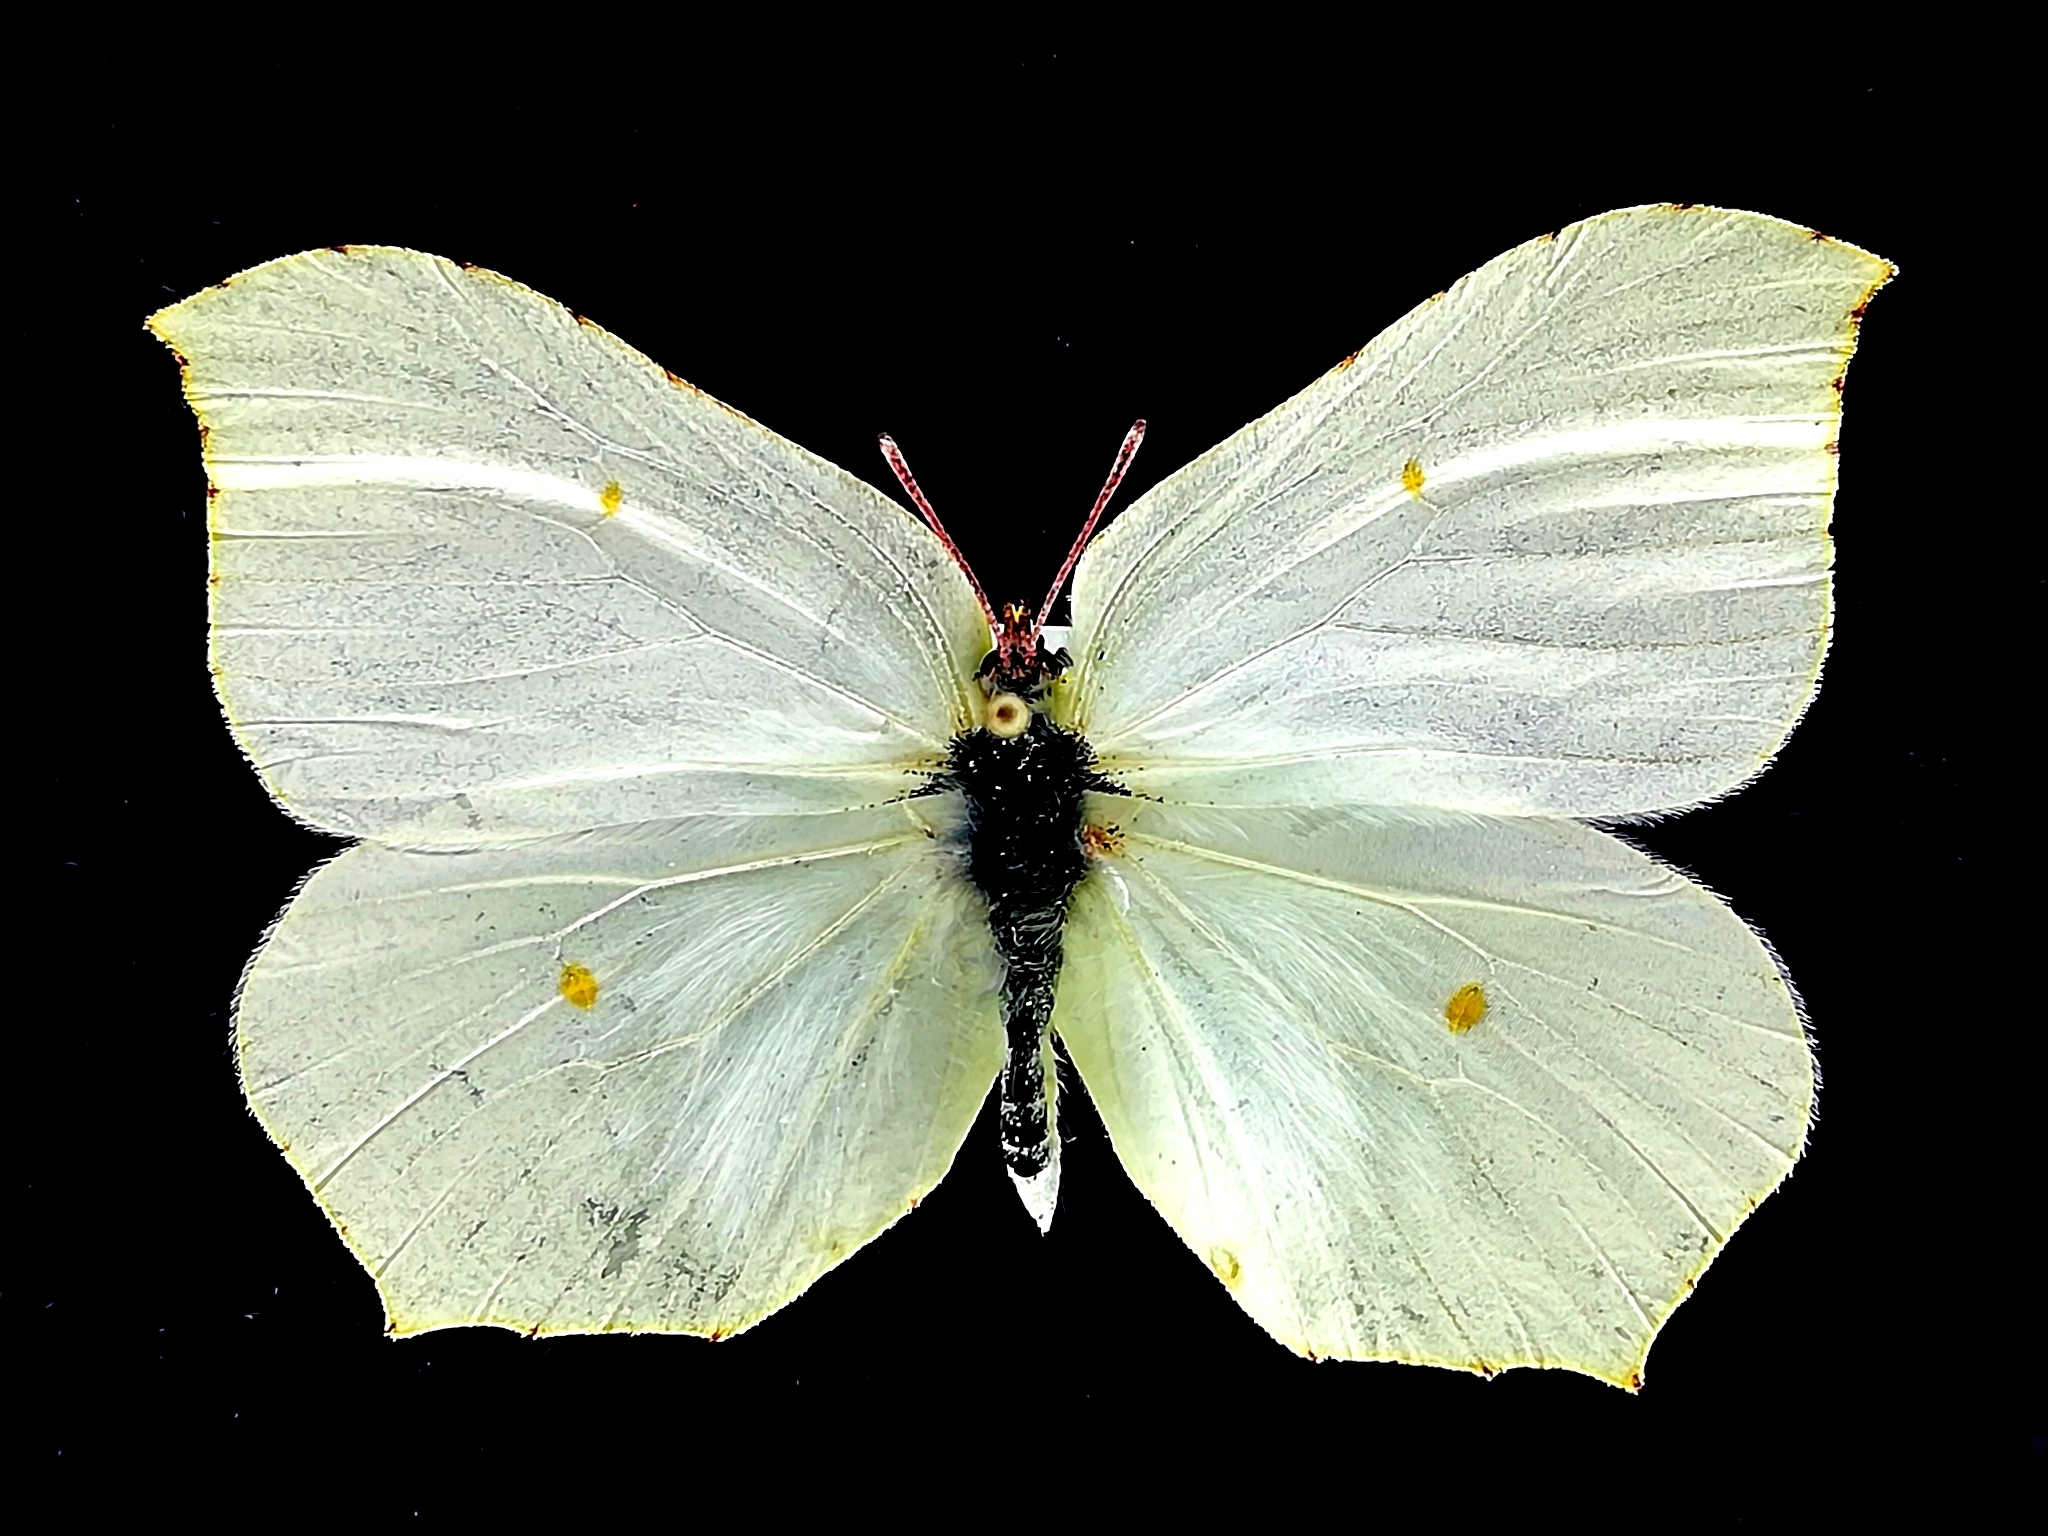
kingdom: Animalia
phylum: Arthropoda
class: Insecta
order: Lepidoptera
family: Pieridae
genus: Gonepteryx
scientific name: Gonepteryx rhamni
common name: Brimstone
